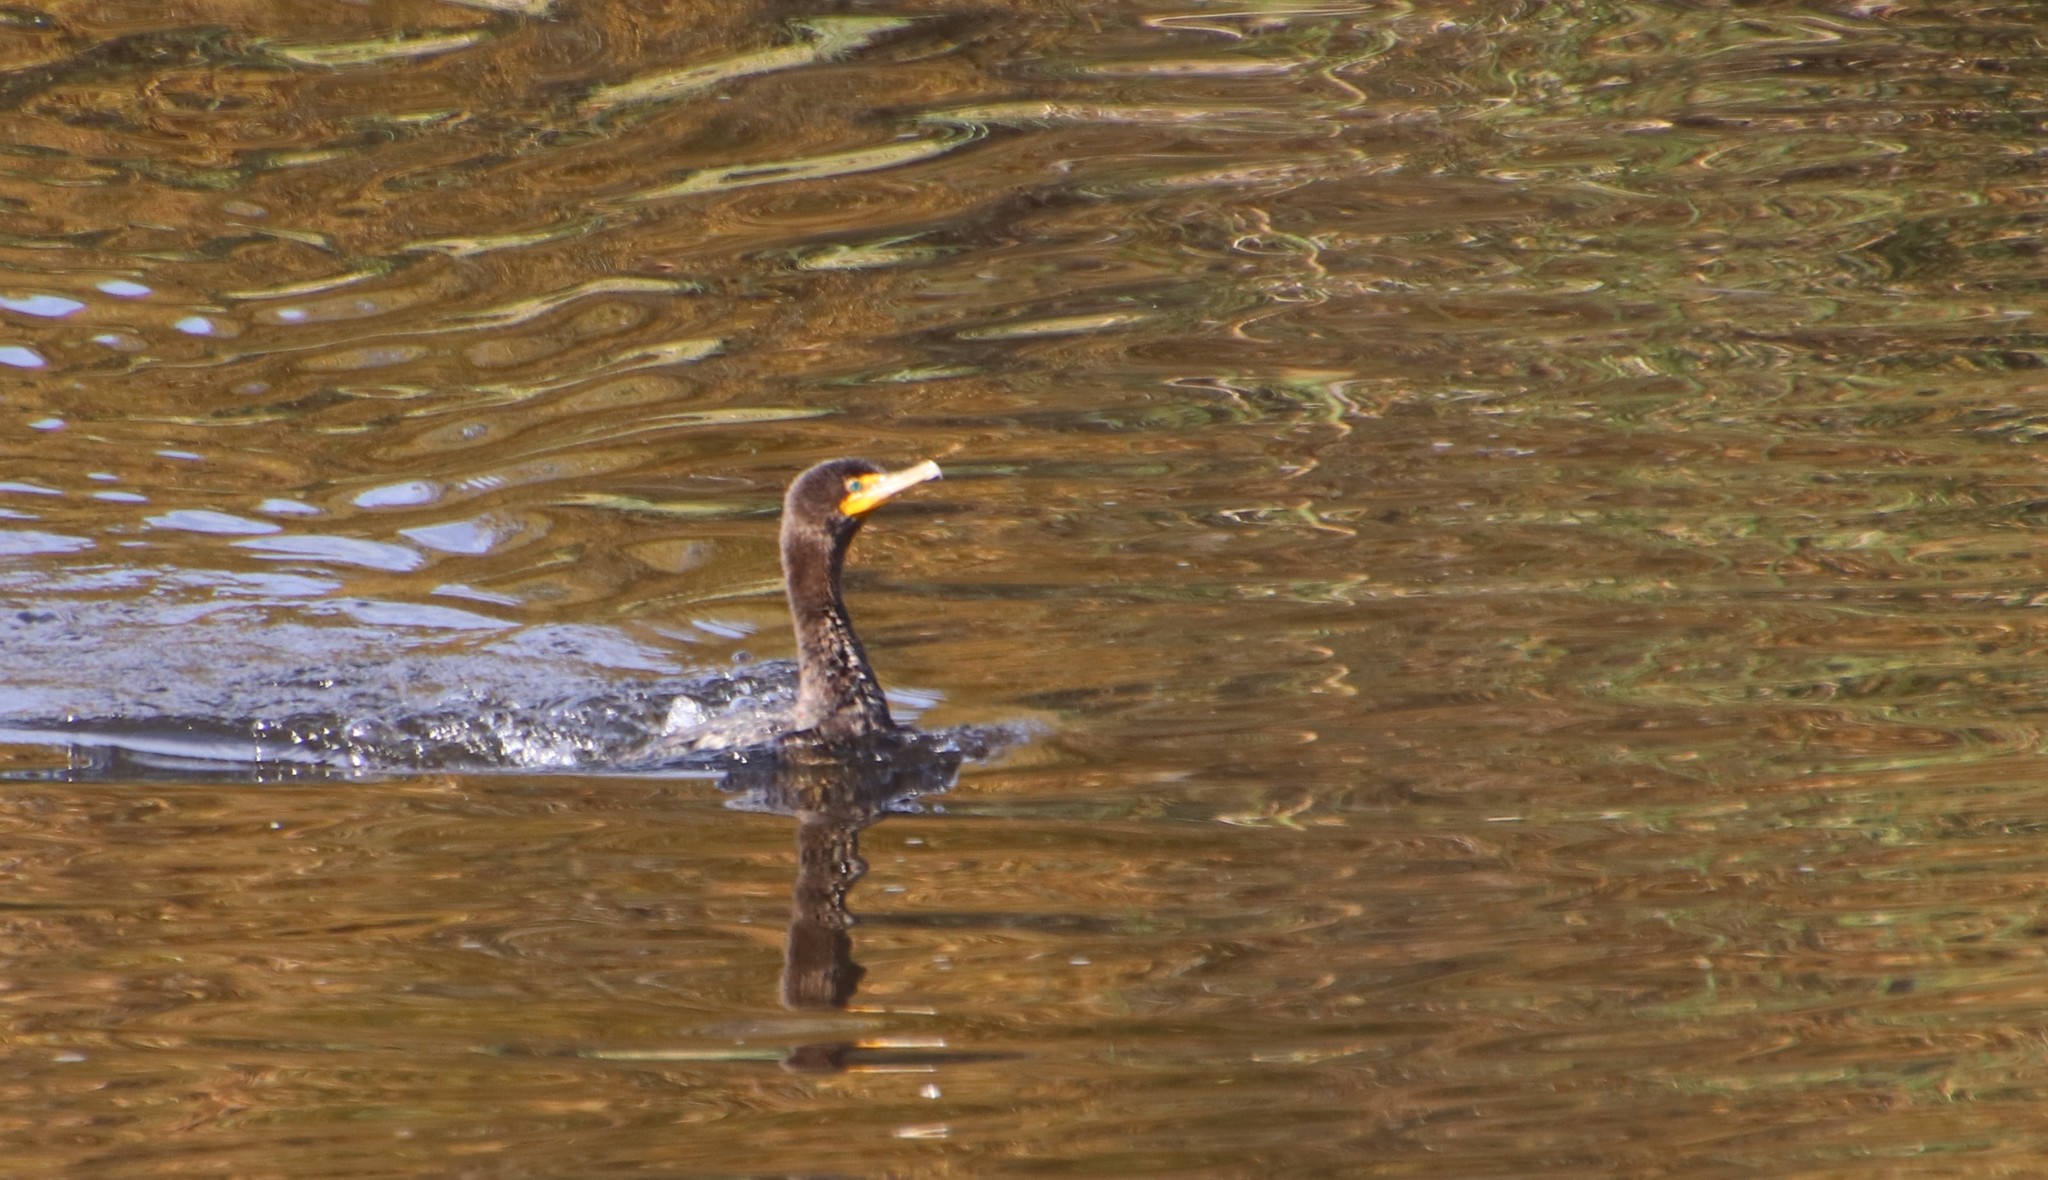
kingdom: Animalia
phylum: Chordata
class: Aves
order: Suliformes
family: Phalacrocoracidae
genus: Phalacrocorax
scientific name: Phalacrocorax auritus
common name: Double-crested cormorant
